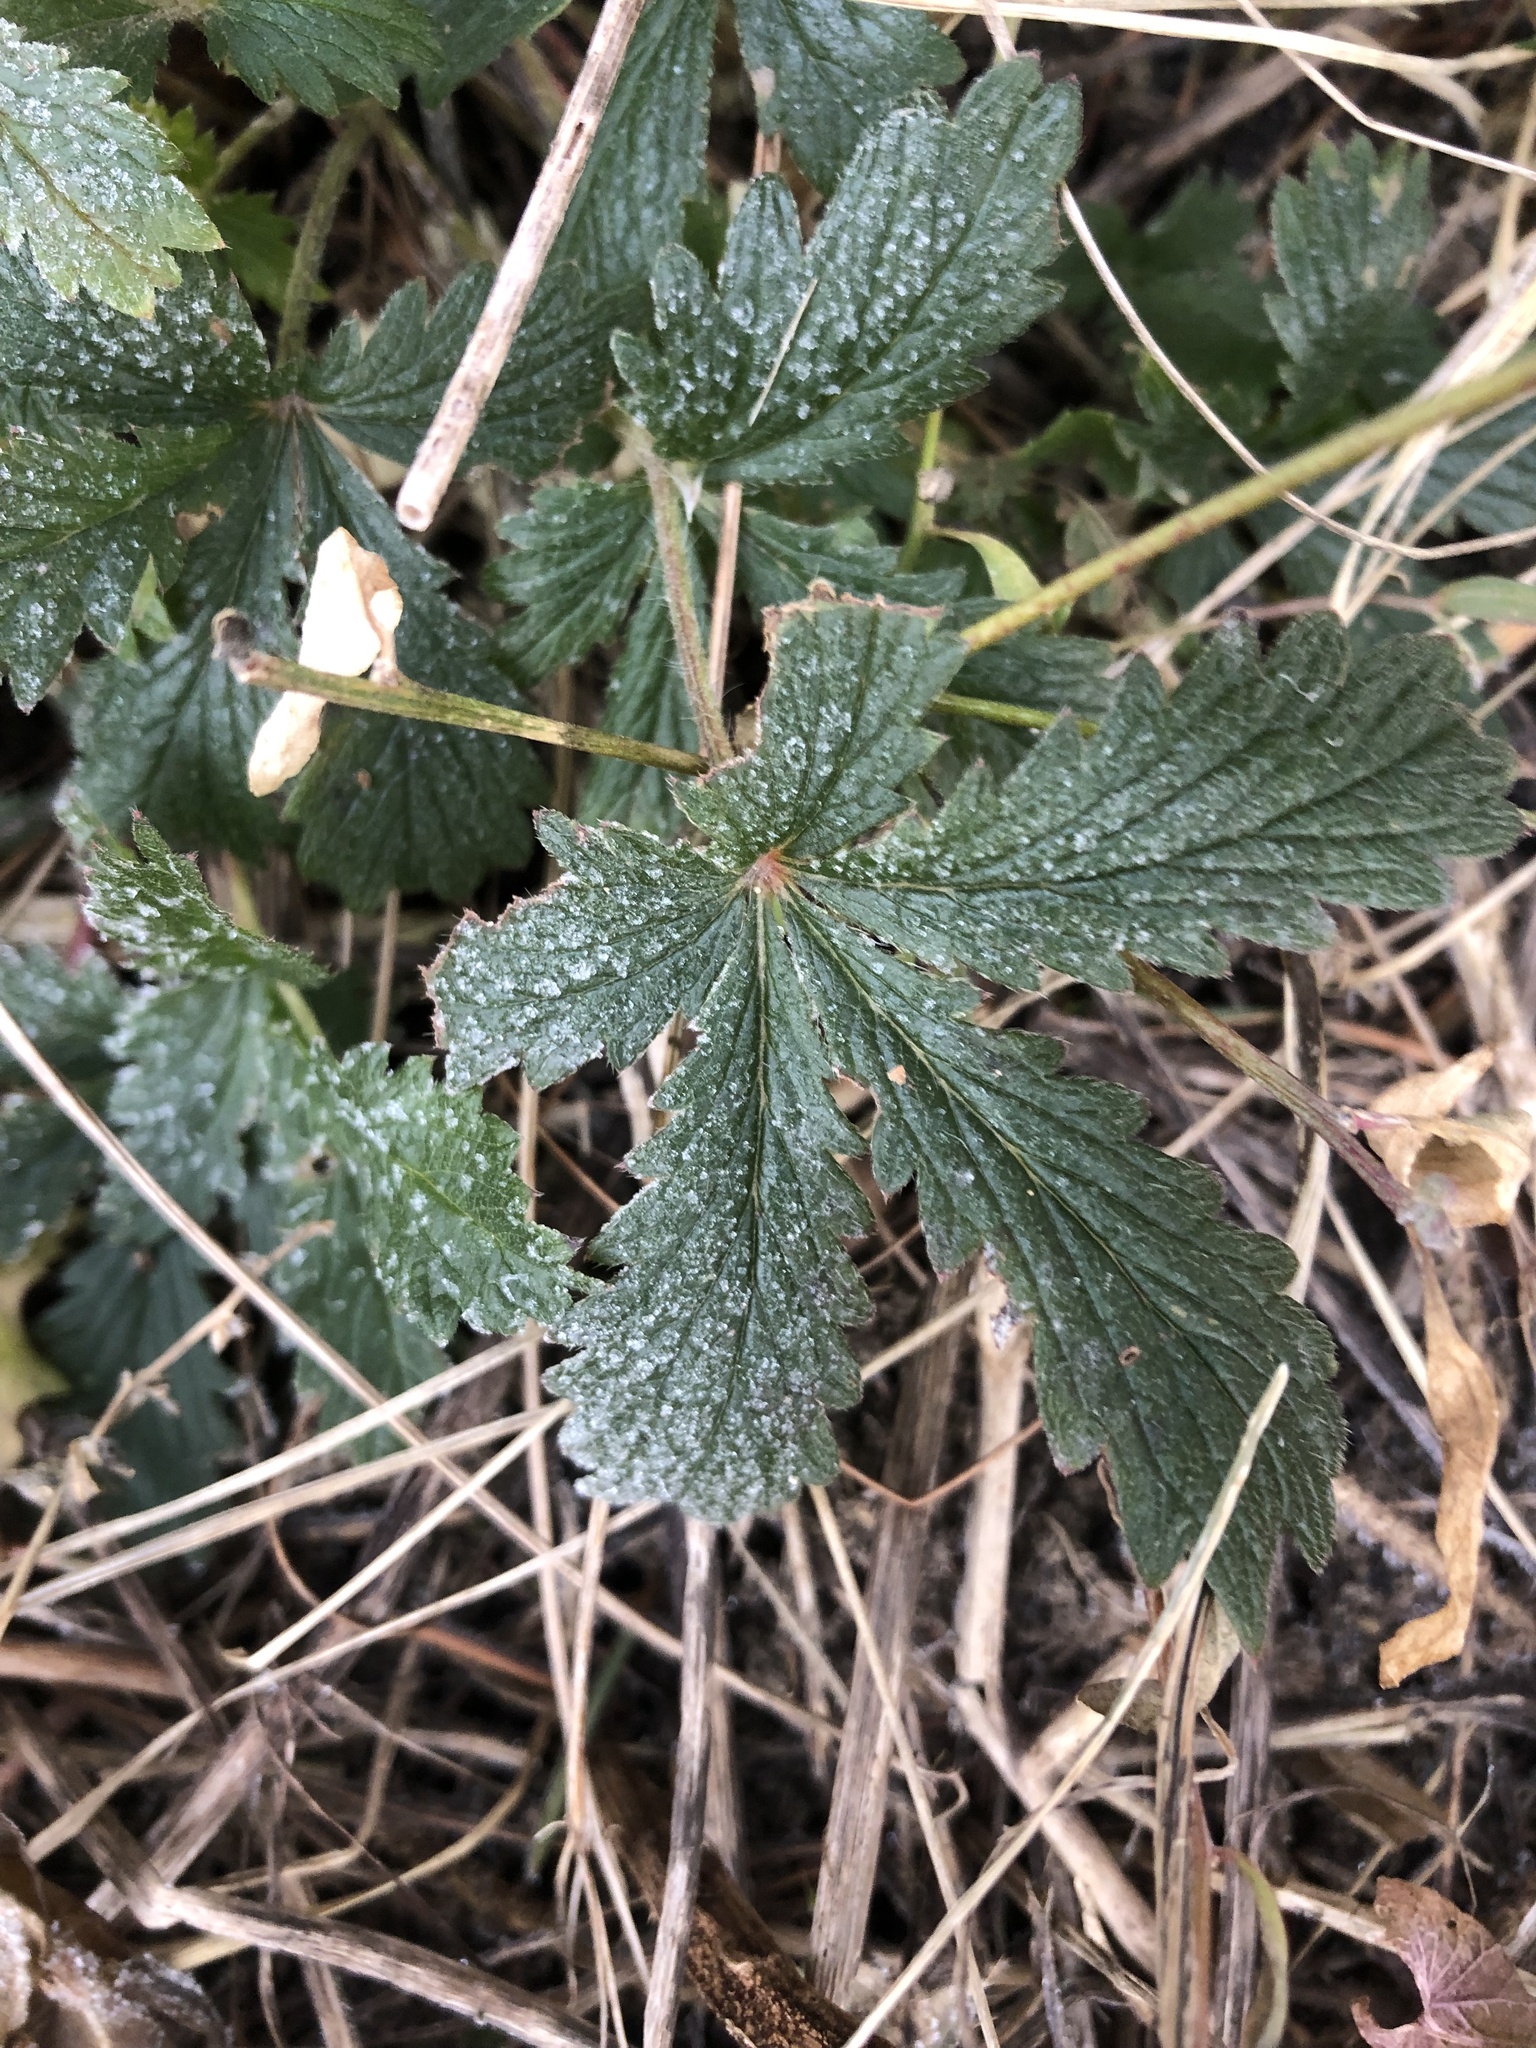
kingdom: Plantae
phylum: Tracheophyta
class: Magnoliopsida
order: Rosales
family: Rosaceae
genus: Potentilla
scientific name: Potentilla recta
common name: Sulphur cinquefoil
